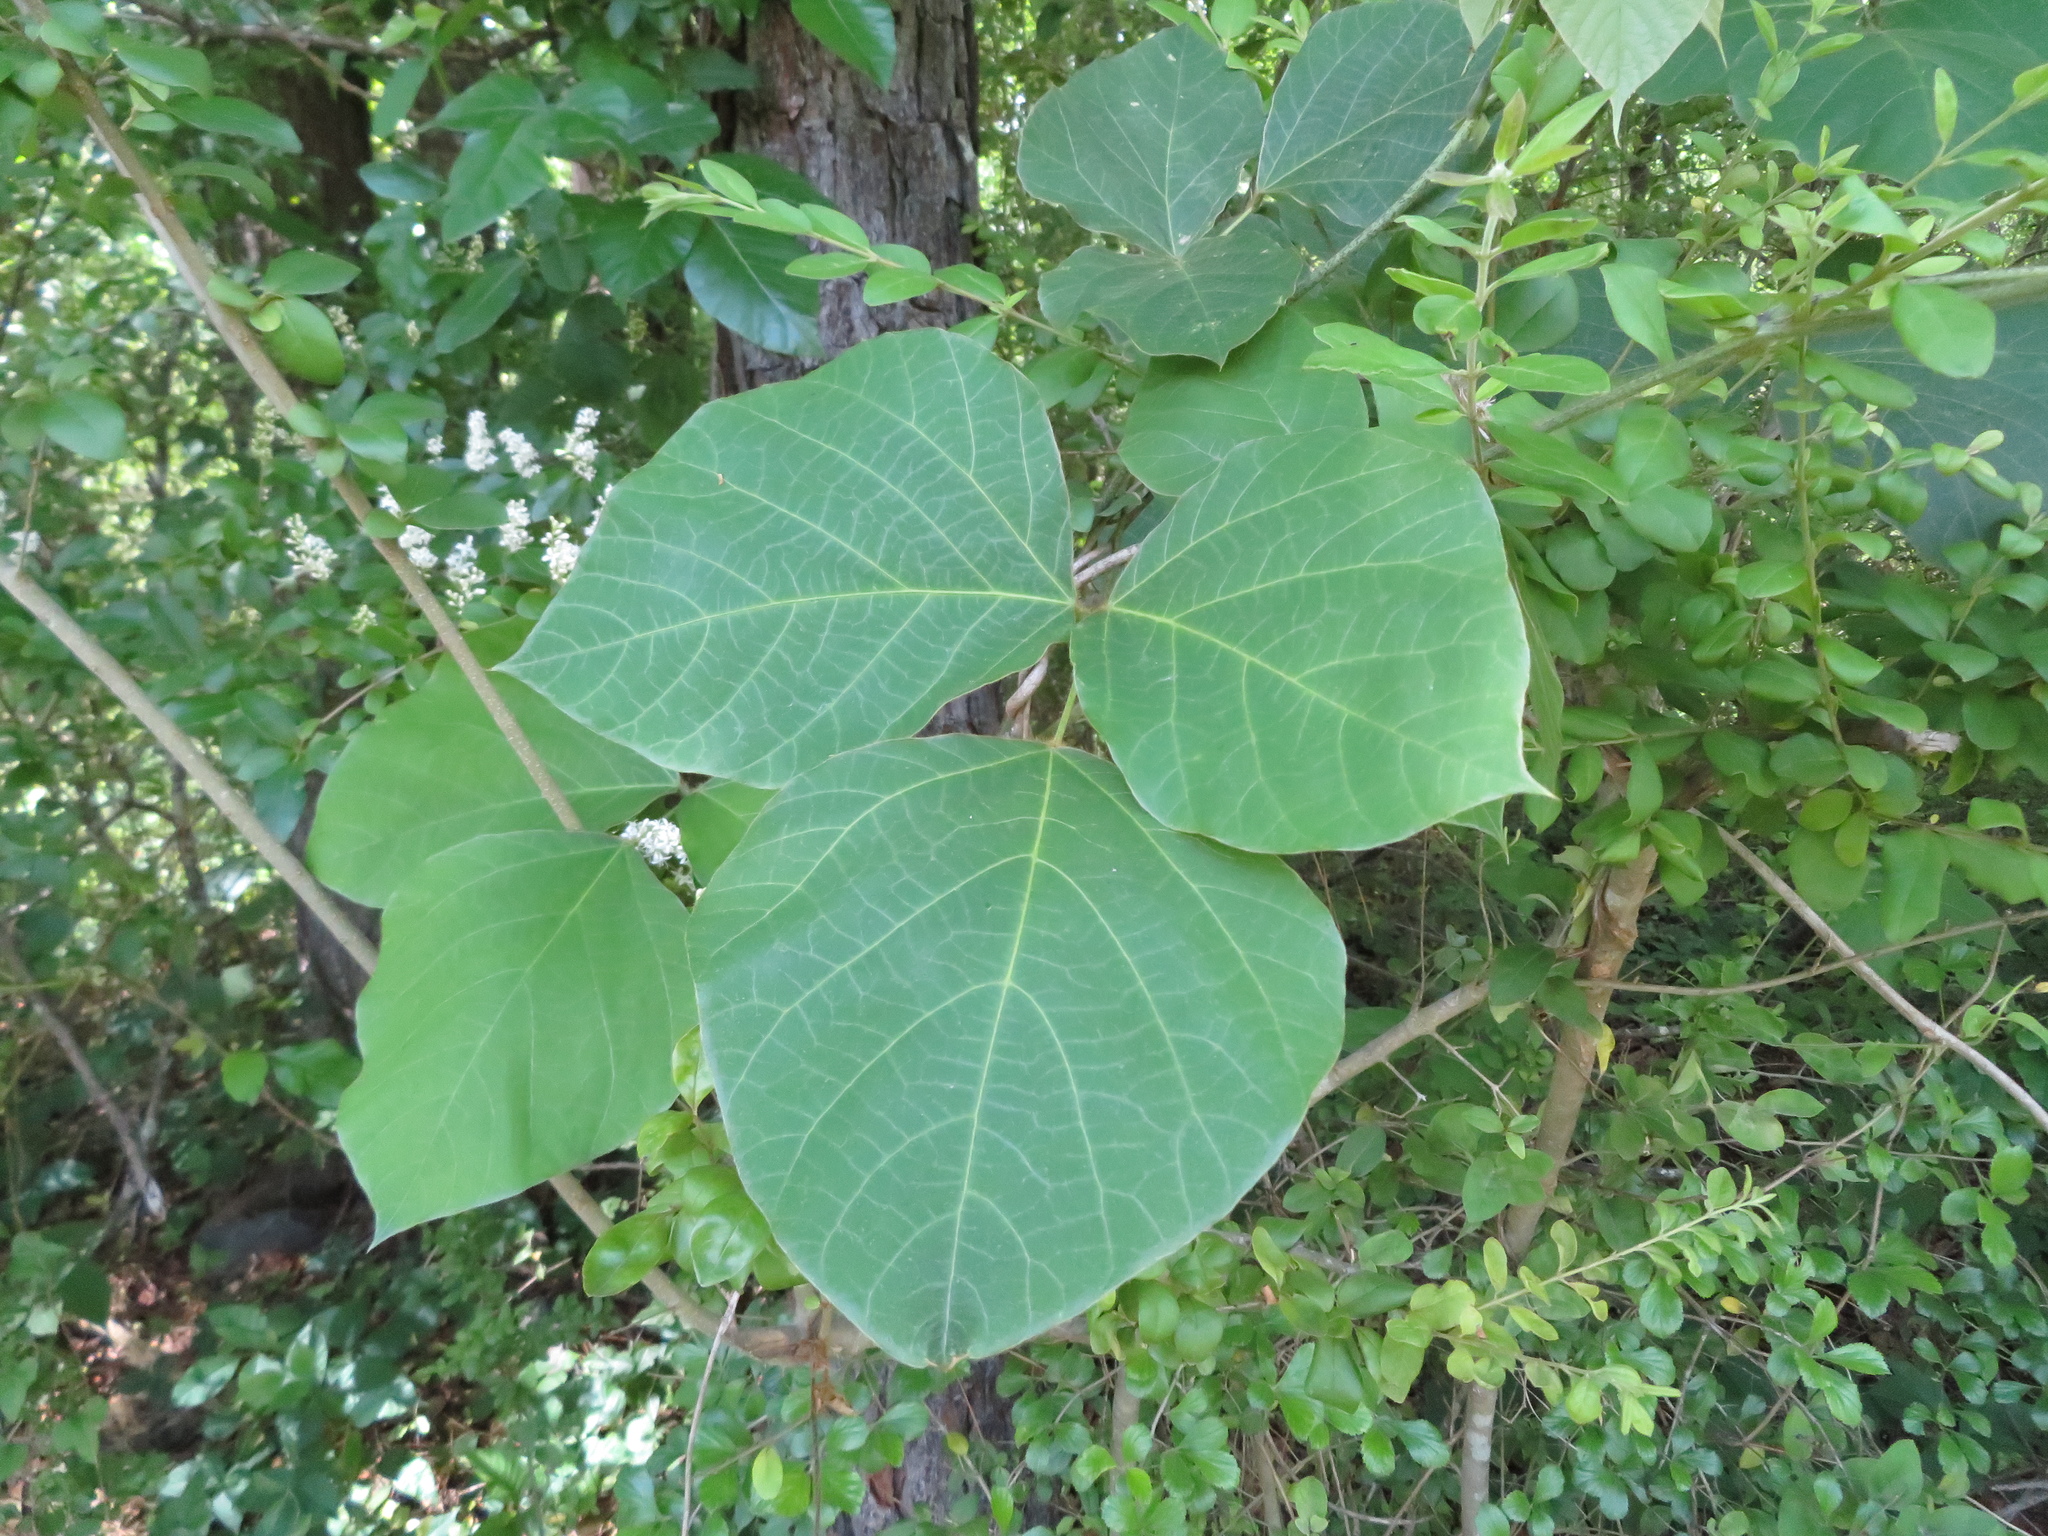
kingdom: Plantae
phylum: Tracheophyta
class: Magnoliopsida
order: Fabales
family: Fabaceae
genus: Pueraria
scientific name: Pueraria montana
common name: Kudzu
